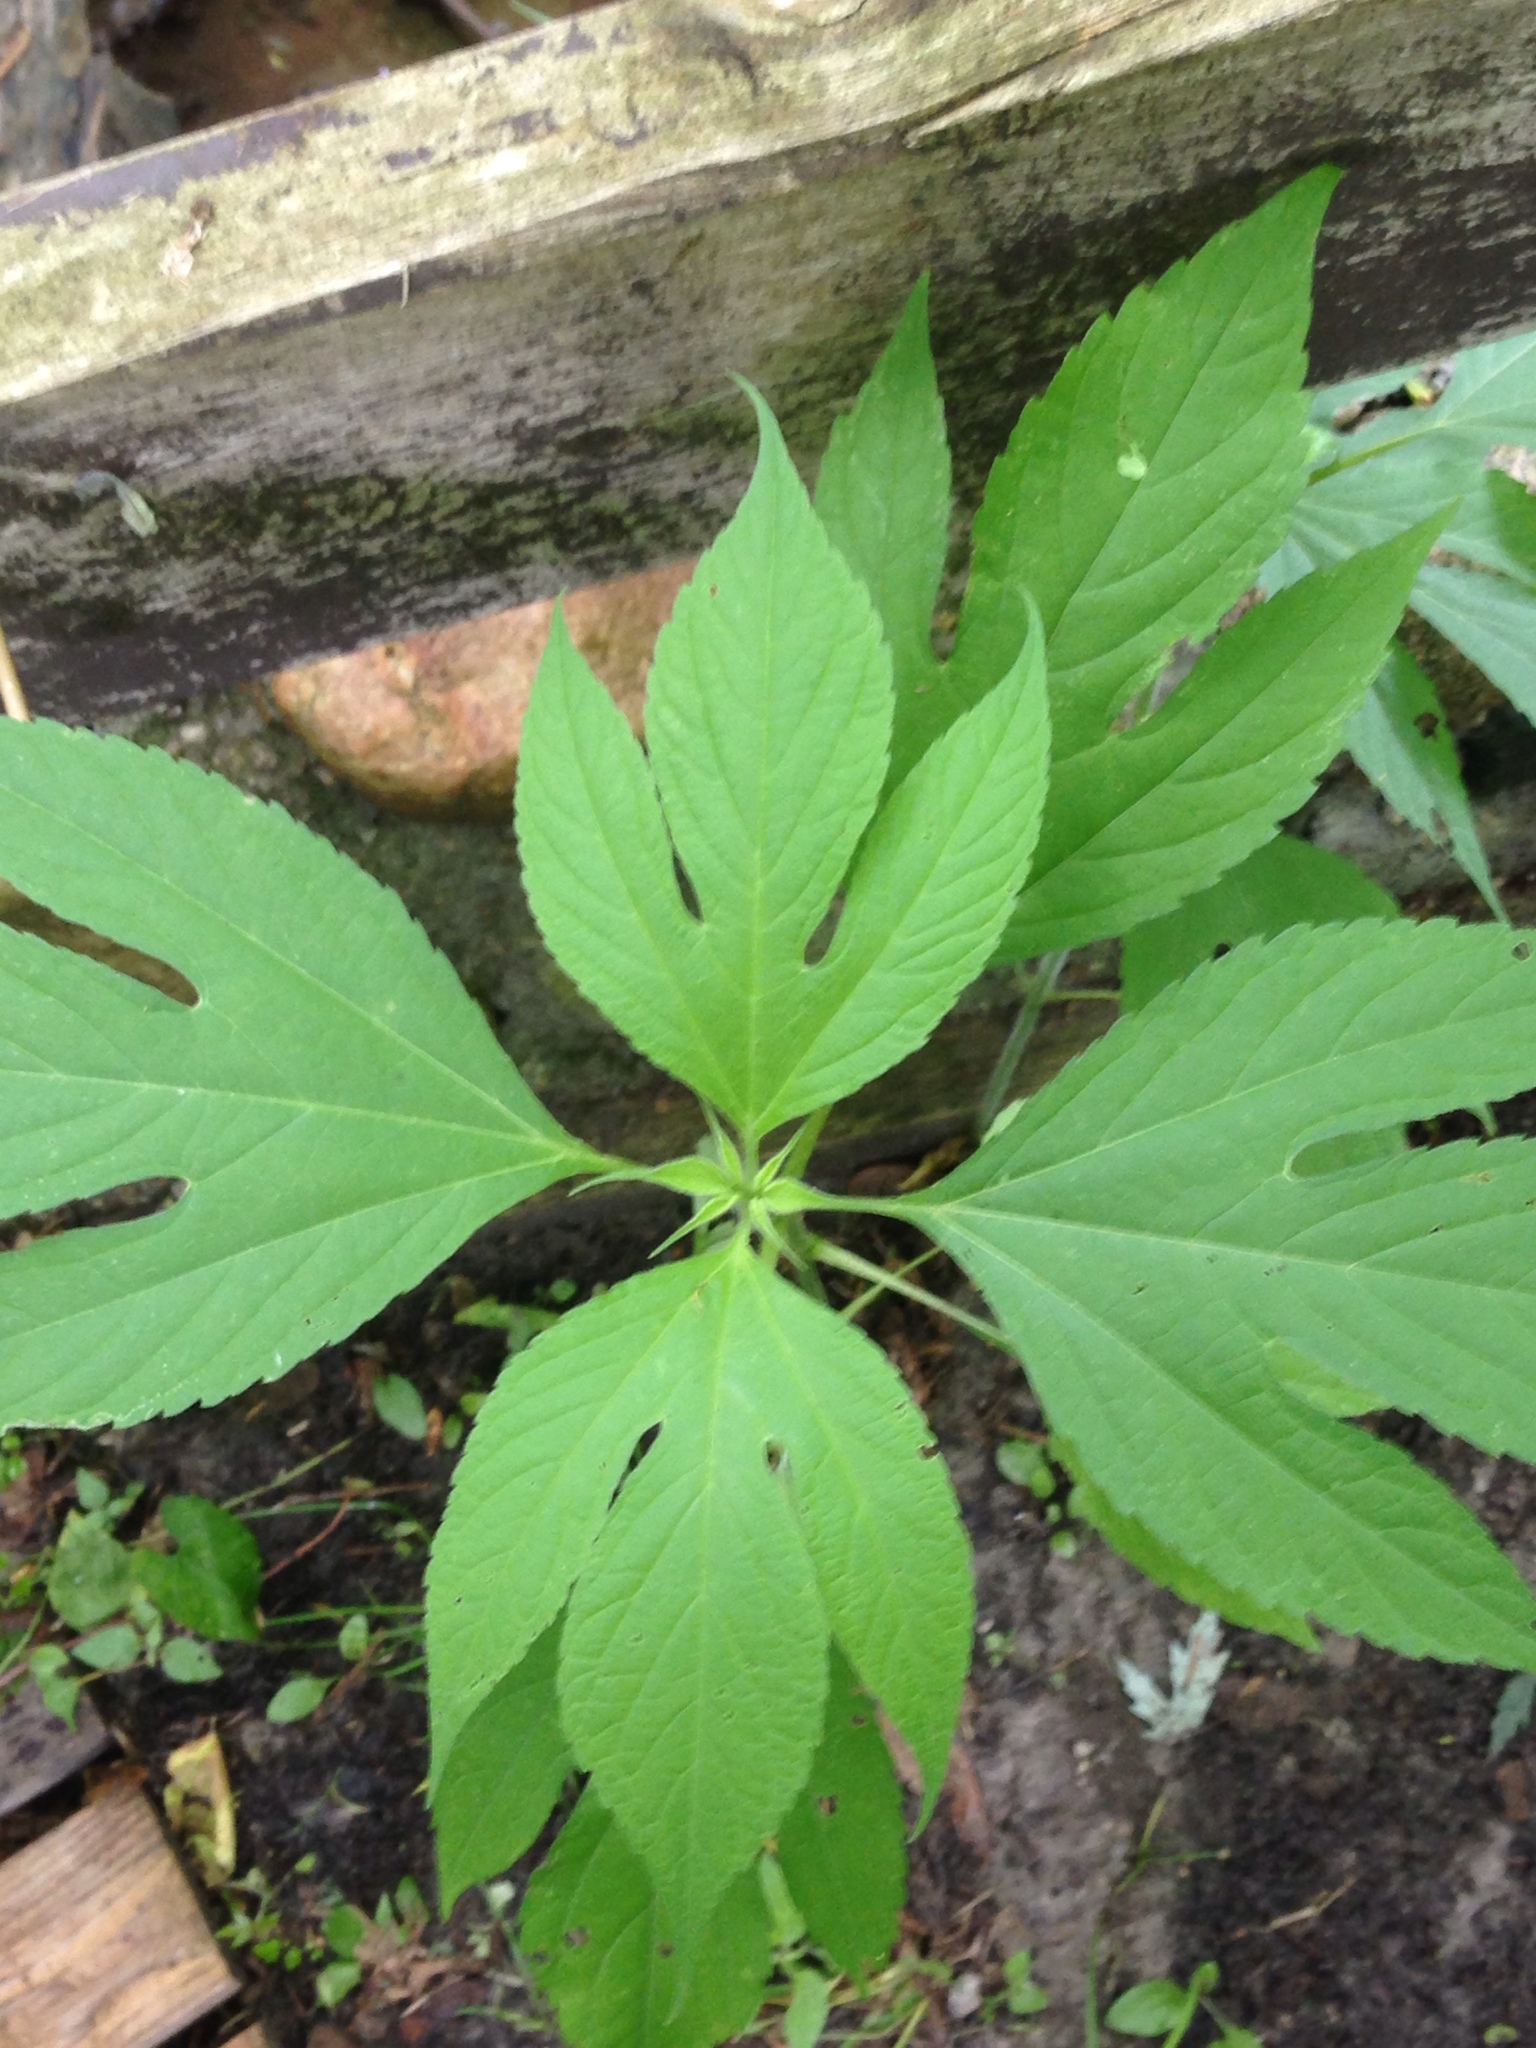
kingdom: Plantae
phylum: Tracheophyta
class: Magnoliopsida
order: Asterales
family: Asteraceae
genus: Ambrosia
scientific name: Ambrosia trifida
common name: Giant ragweed
